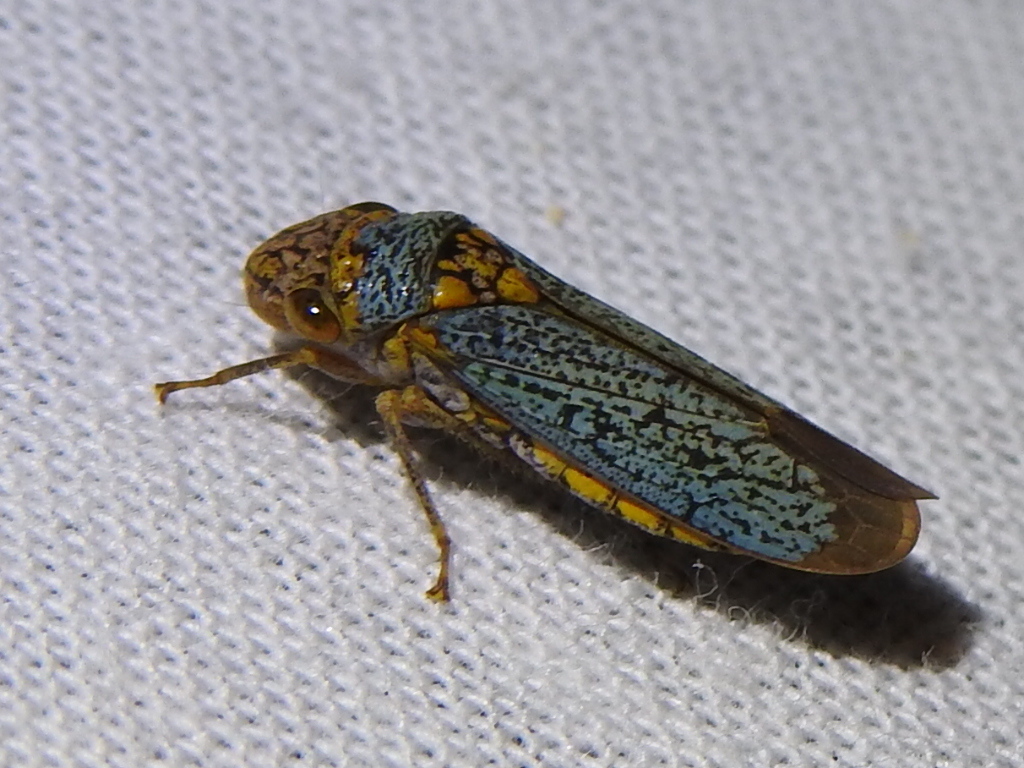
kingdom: Animalia
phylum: Arthropoda
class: Insecta
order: Hemiptera
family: Cicadellidae
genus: Oncometopia
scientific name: Oncometopia orbona
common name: Broad-headed sharpshooter
